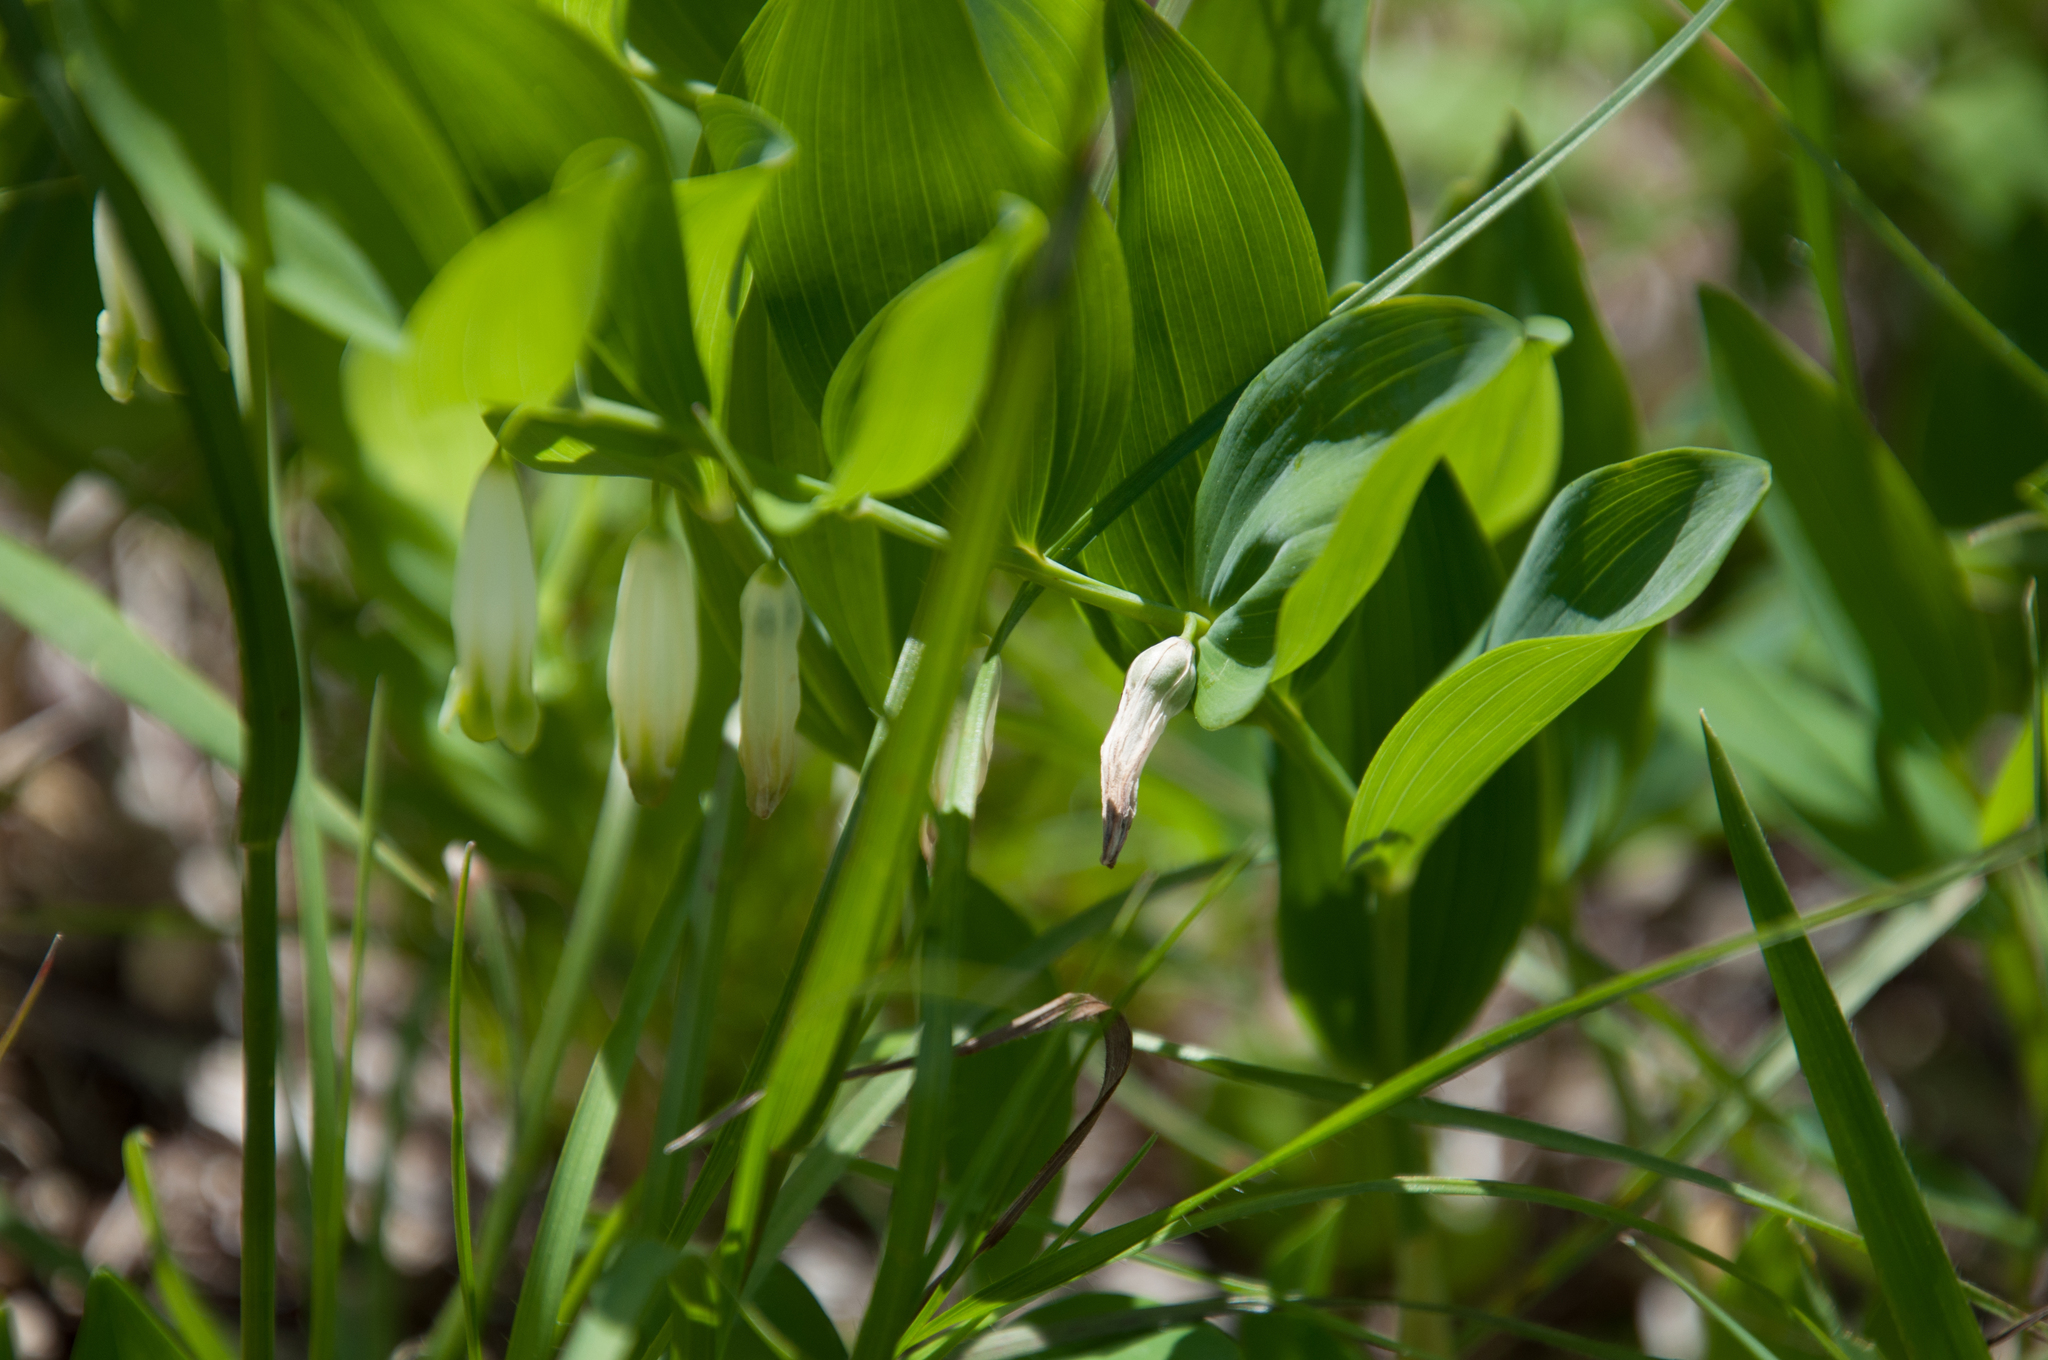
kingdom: Plantae
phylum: Tracheophyta
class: Liliopsida
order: Asparagales
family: Asparagaceae
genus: Polygonatum
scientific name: Polygonatum odoratum
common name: Angular solomon's-seal
